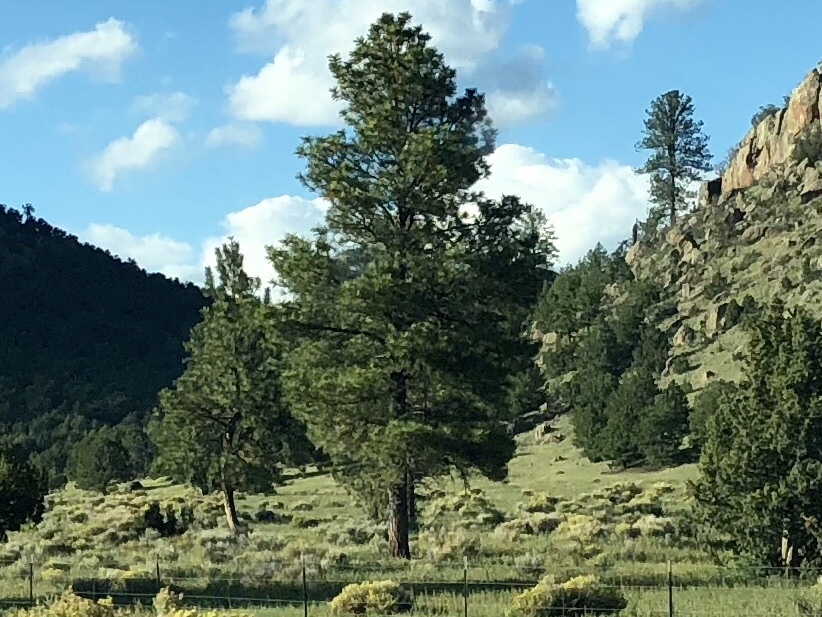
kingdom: Plantae
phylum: Tracheophyta
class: Pinopsida
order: Pinales
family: Pinaceae
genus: Pinus
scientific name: Pinus ponderosa
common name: Western yellow-pine
